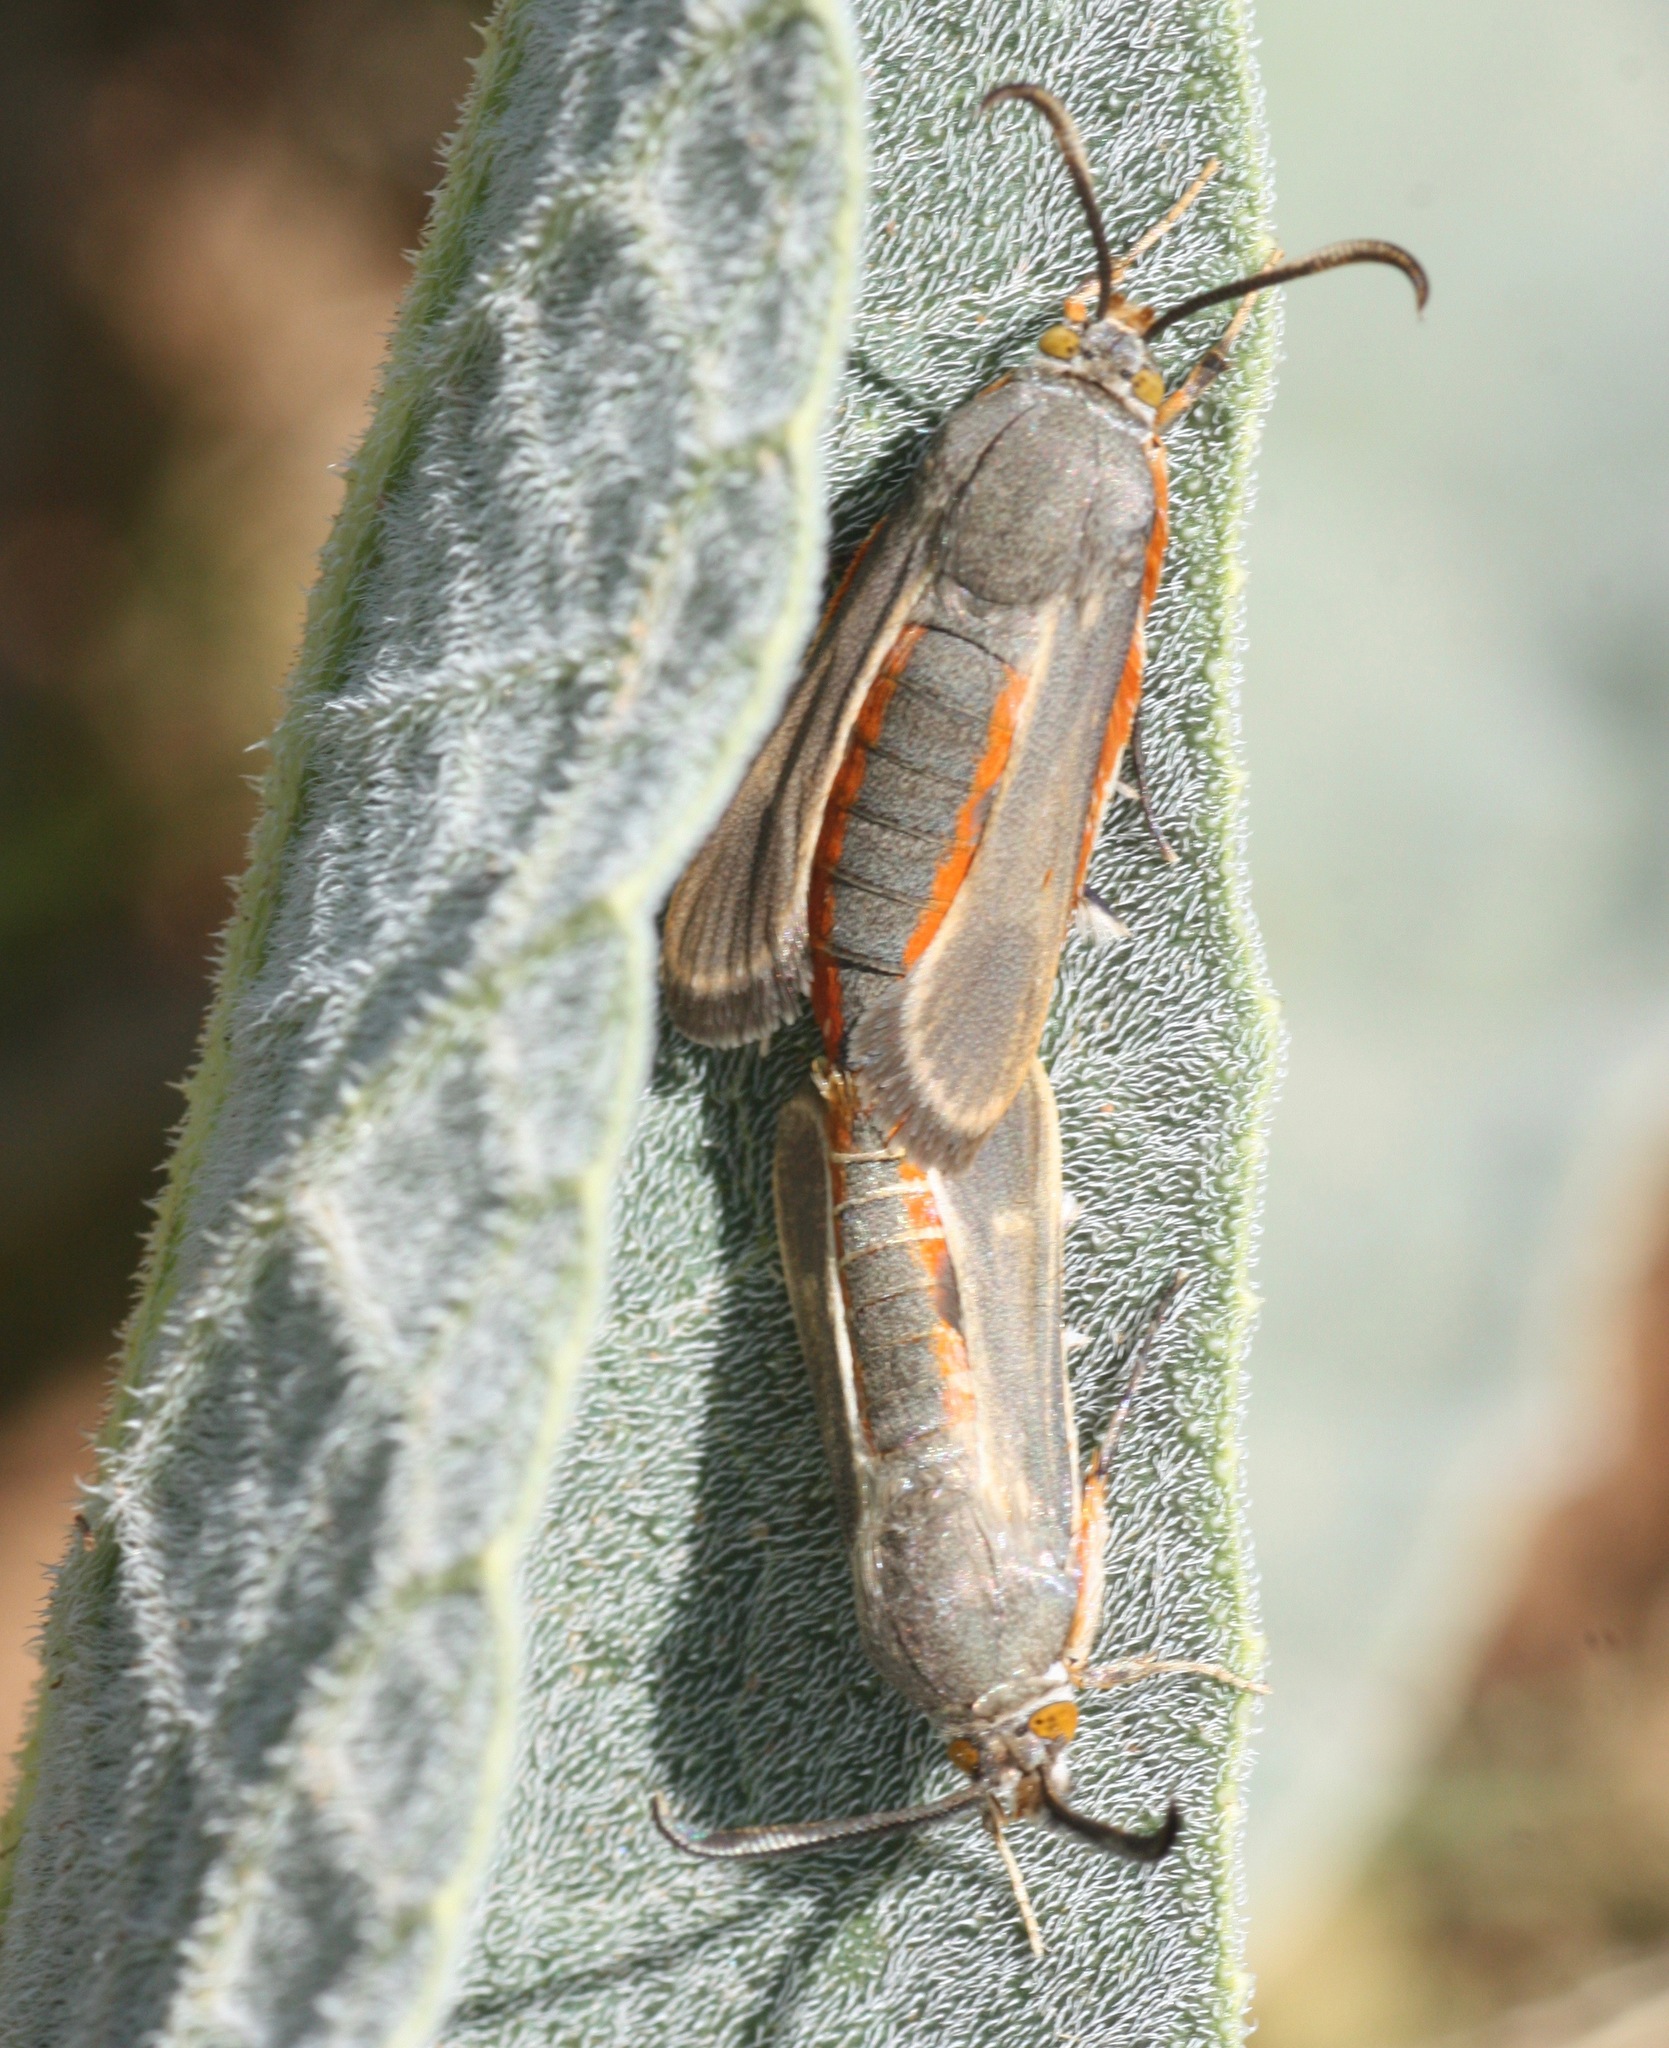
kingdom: Animalia
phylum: Arthropoda
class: Insecta
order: Lepidoptera
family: Sesiidae
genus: Eichlinia
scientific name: Eichlinia snowii
